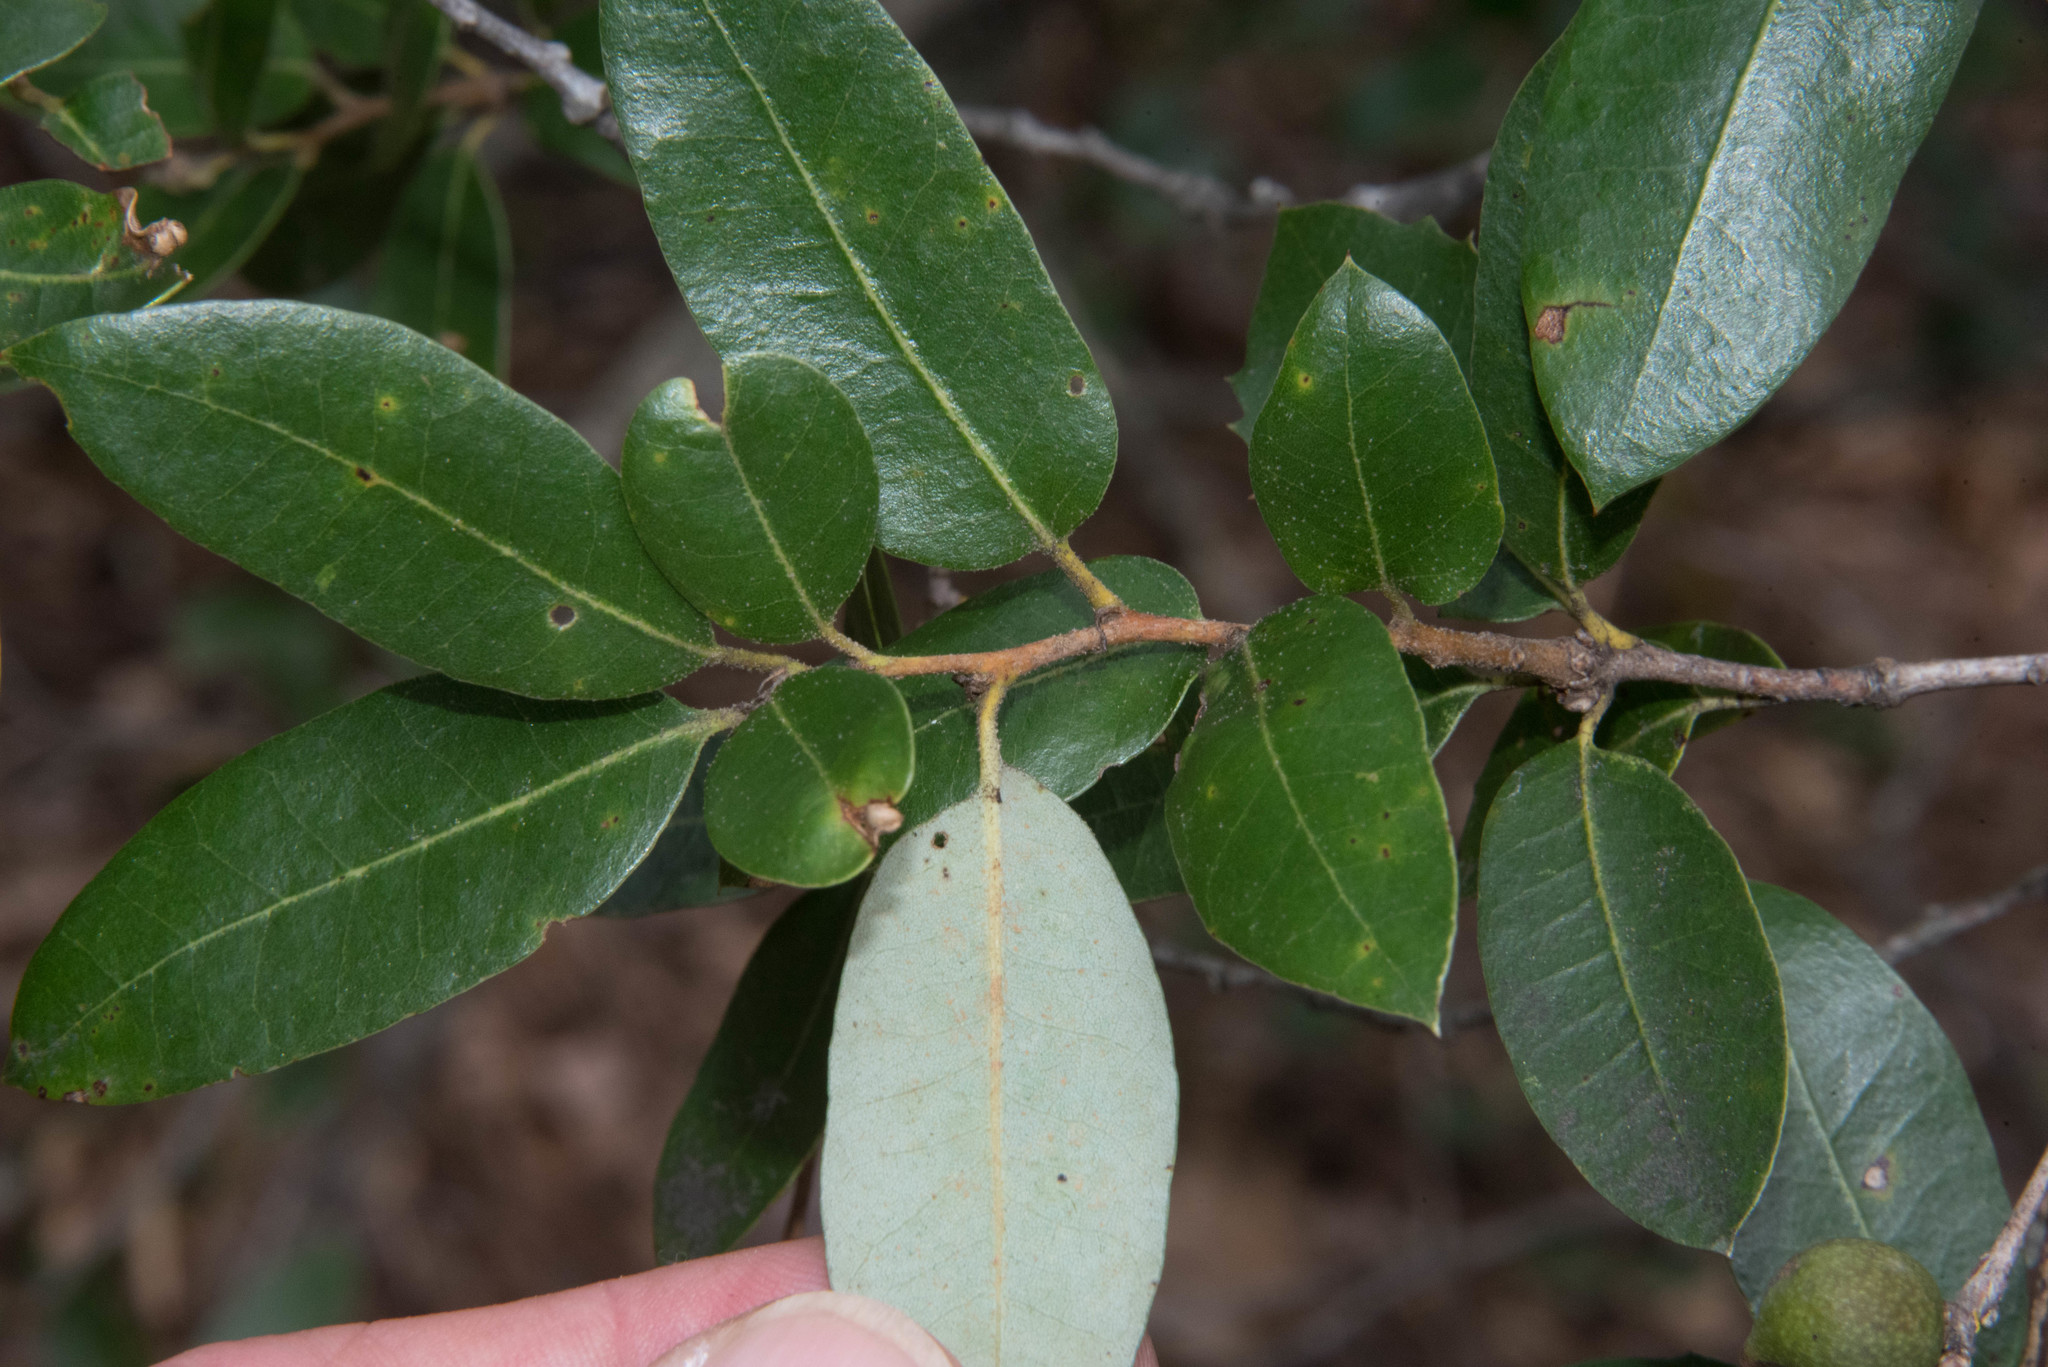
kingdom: Plantae
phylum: Tracheophyta
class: Magnoliopsida
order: Fagales
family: Fagaceae
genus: Quercus
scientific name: Quercus chrysolepis
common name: Canyon live oak
